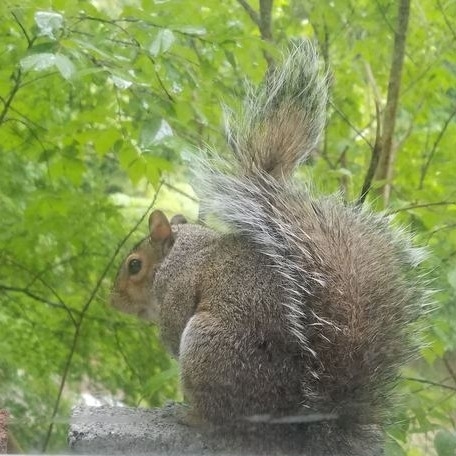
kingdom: Animalia
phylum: Chordata
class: Mammalia
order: Rodentia
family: Sciuridae
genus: Sciurus
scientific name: Sciurus carolinensis
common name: Eastern gray squirrel
